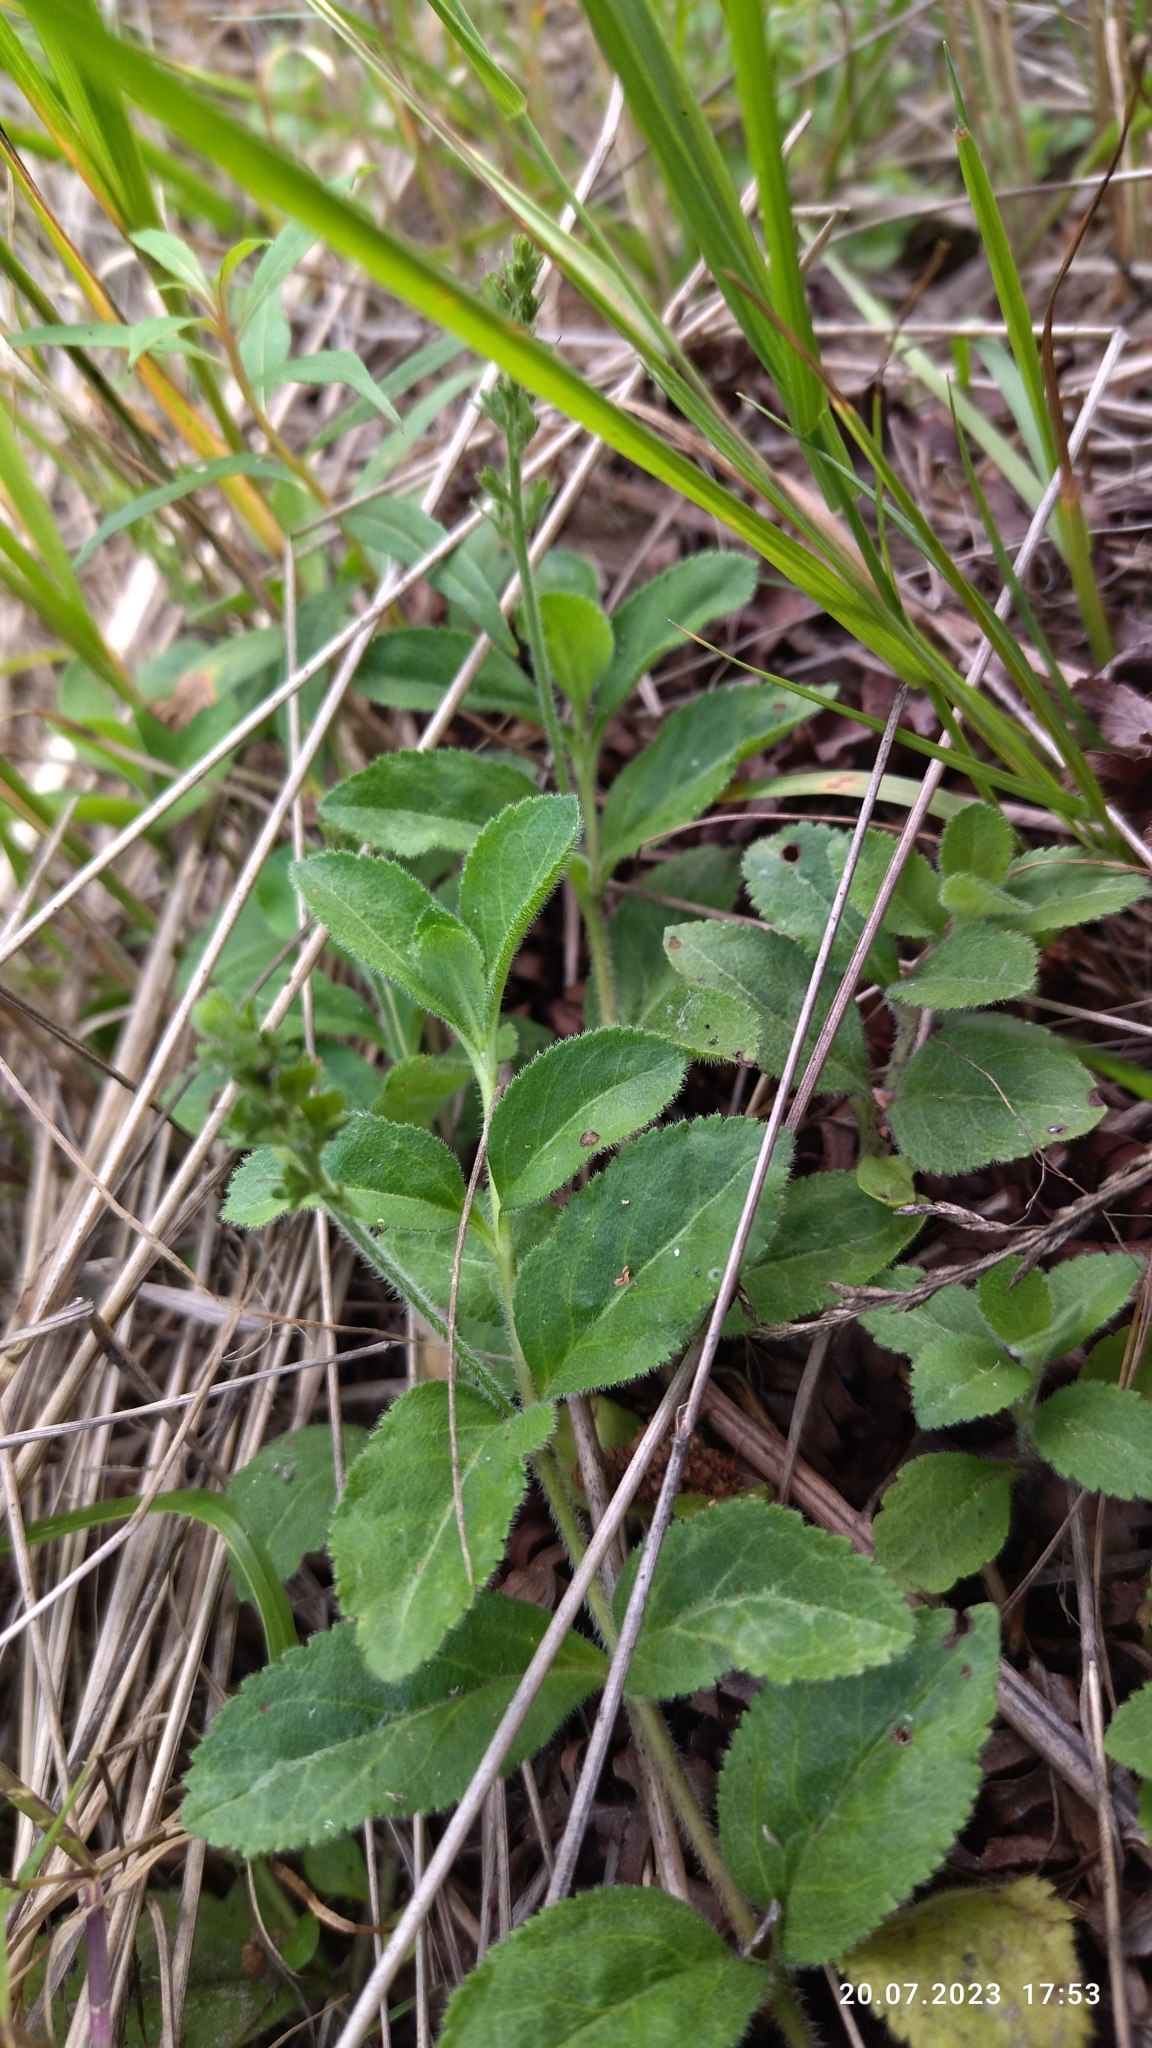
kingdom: Plantae
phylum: Tracheophyta
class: Magnoliopsida
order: Lamiales
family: Plantaginaceae
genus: Veronica
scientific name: Veronica officinalis
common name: Common speedwell
